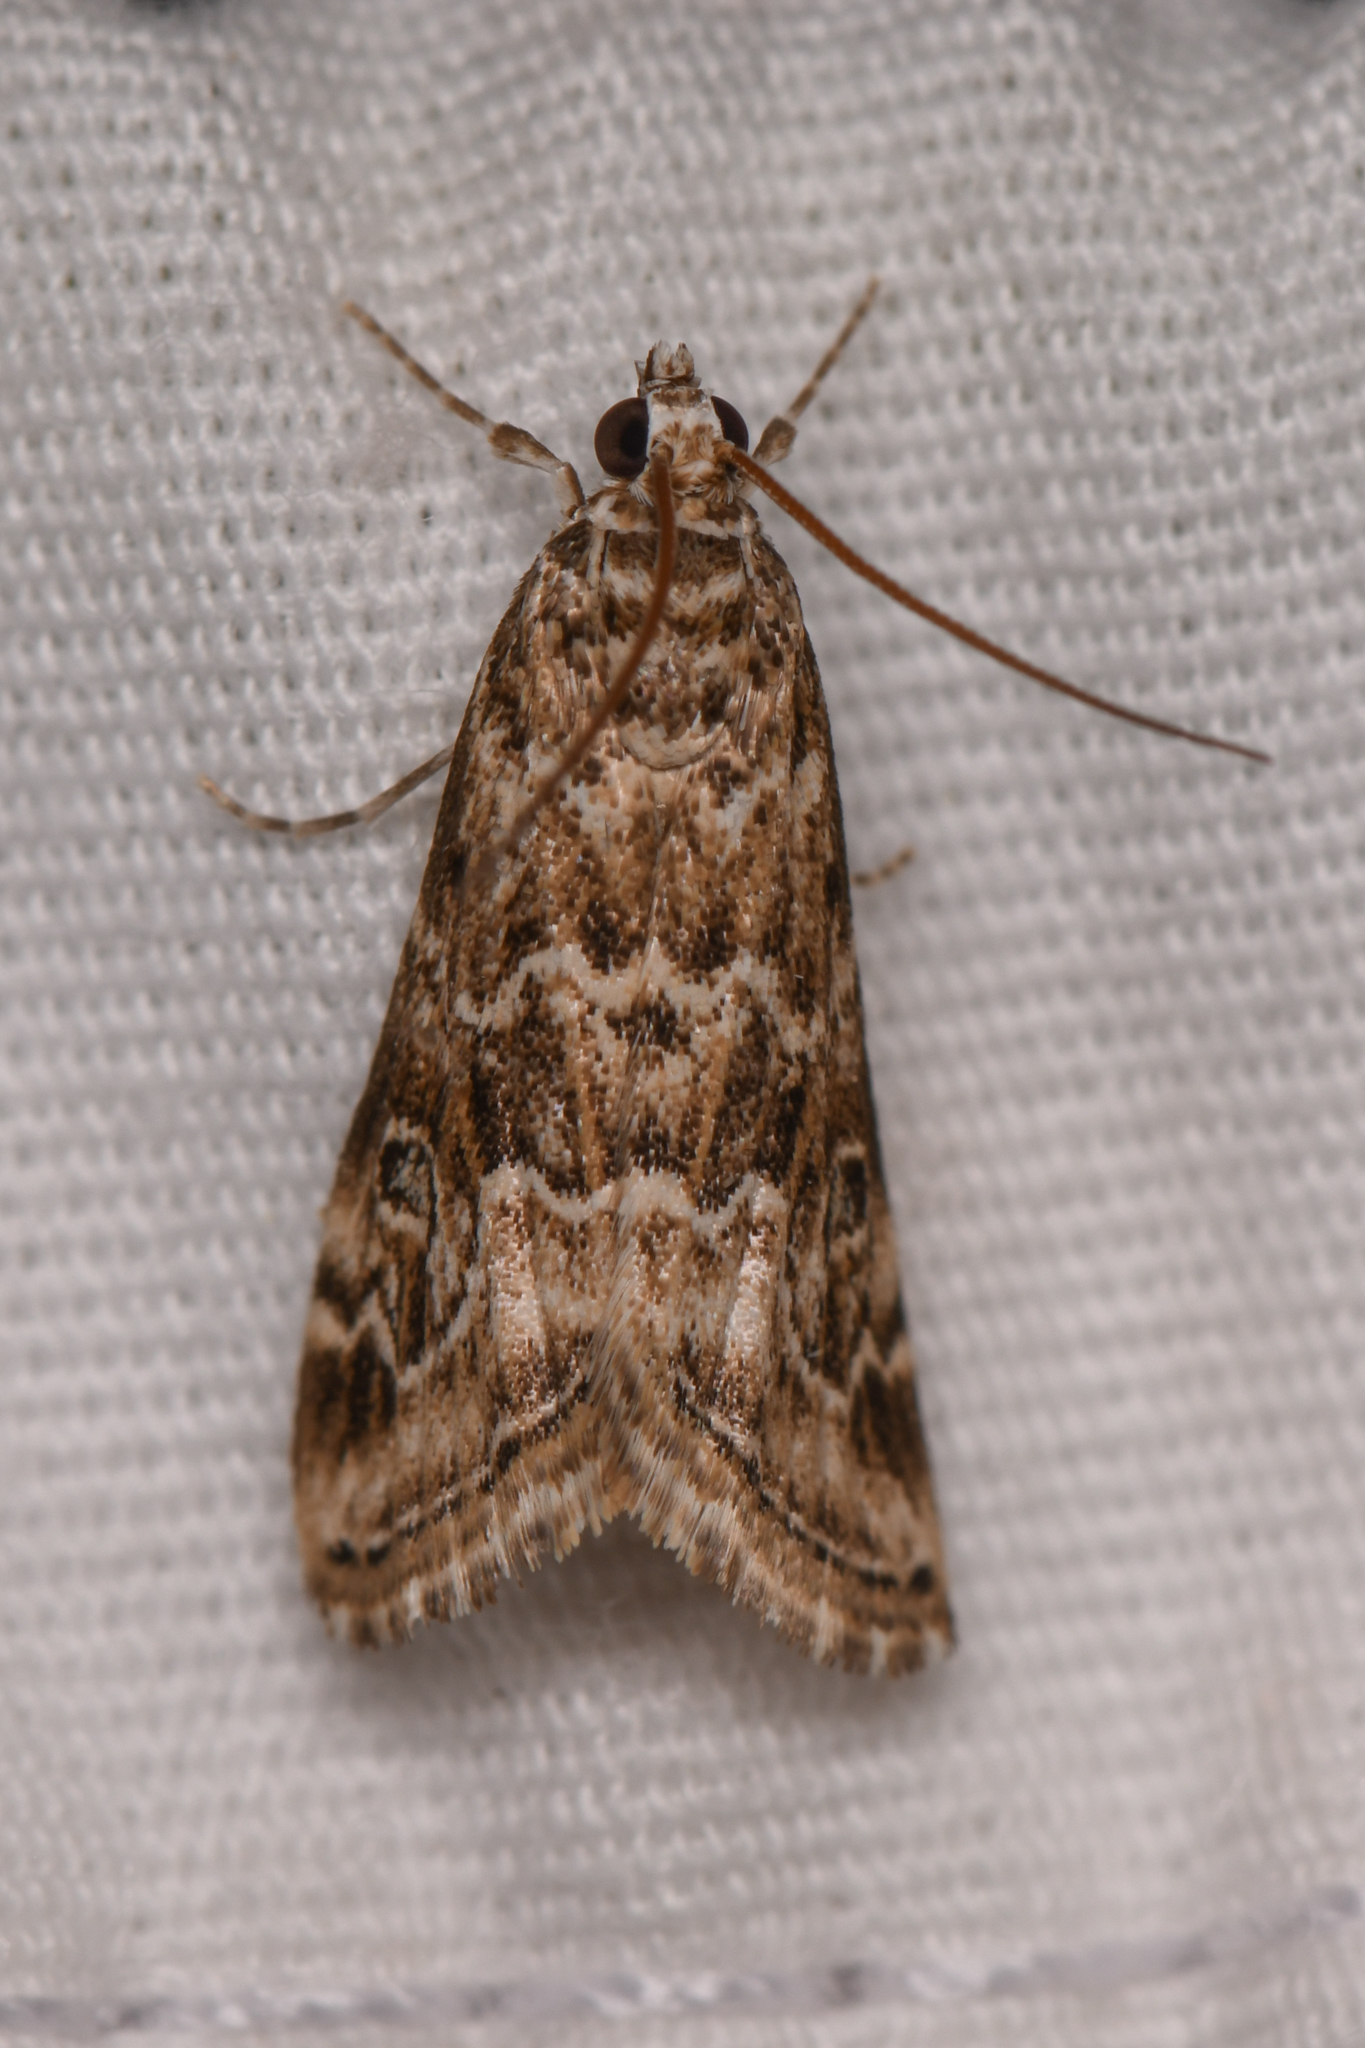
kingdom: Animalia
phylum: Arthropoda
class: Insecta
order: Lepidoptera
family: Crambidae
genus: Hellula
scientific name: Hellula rogatalis
